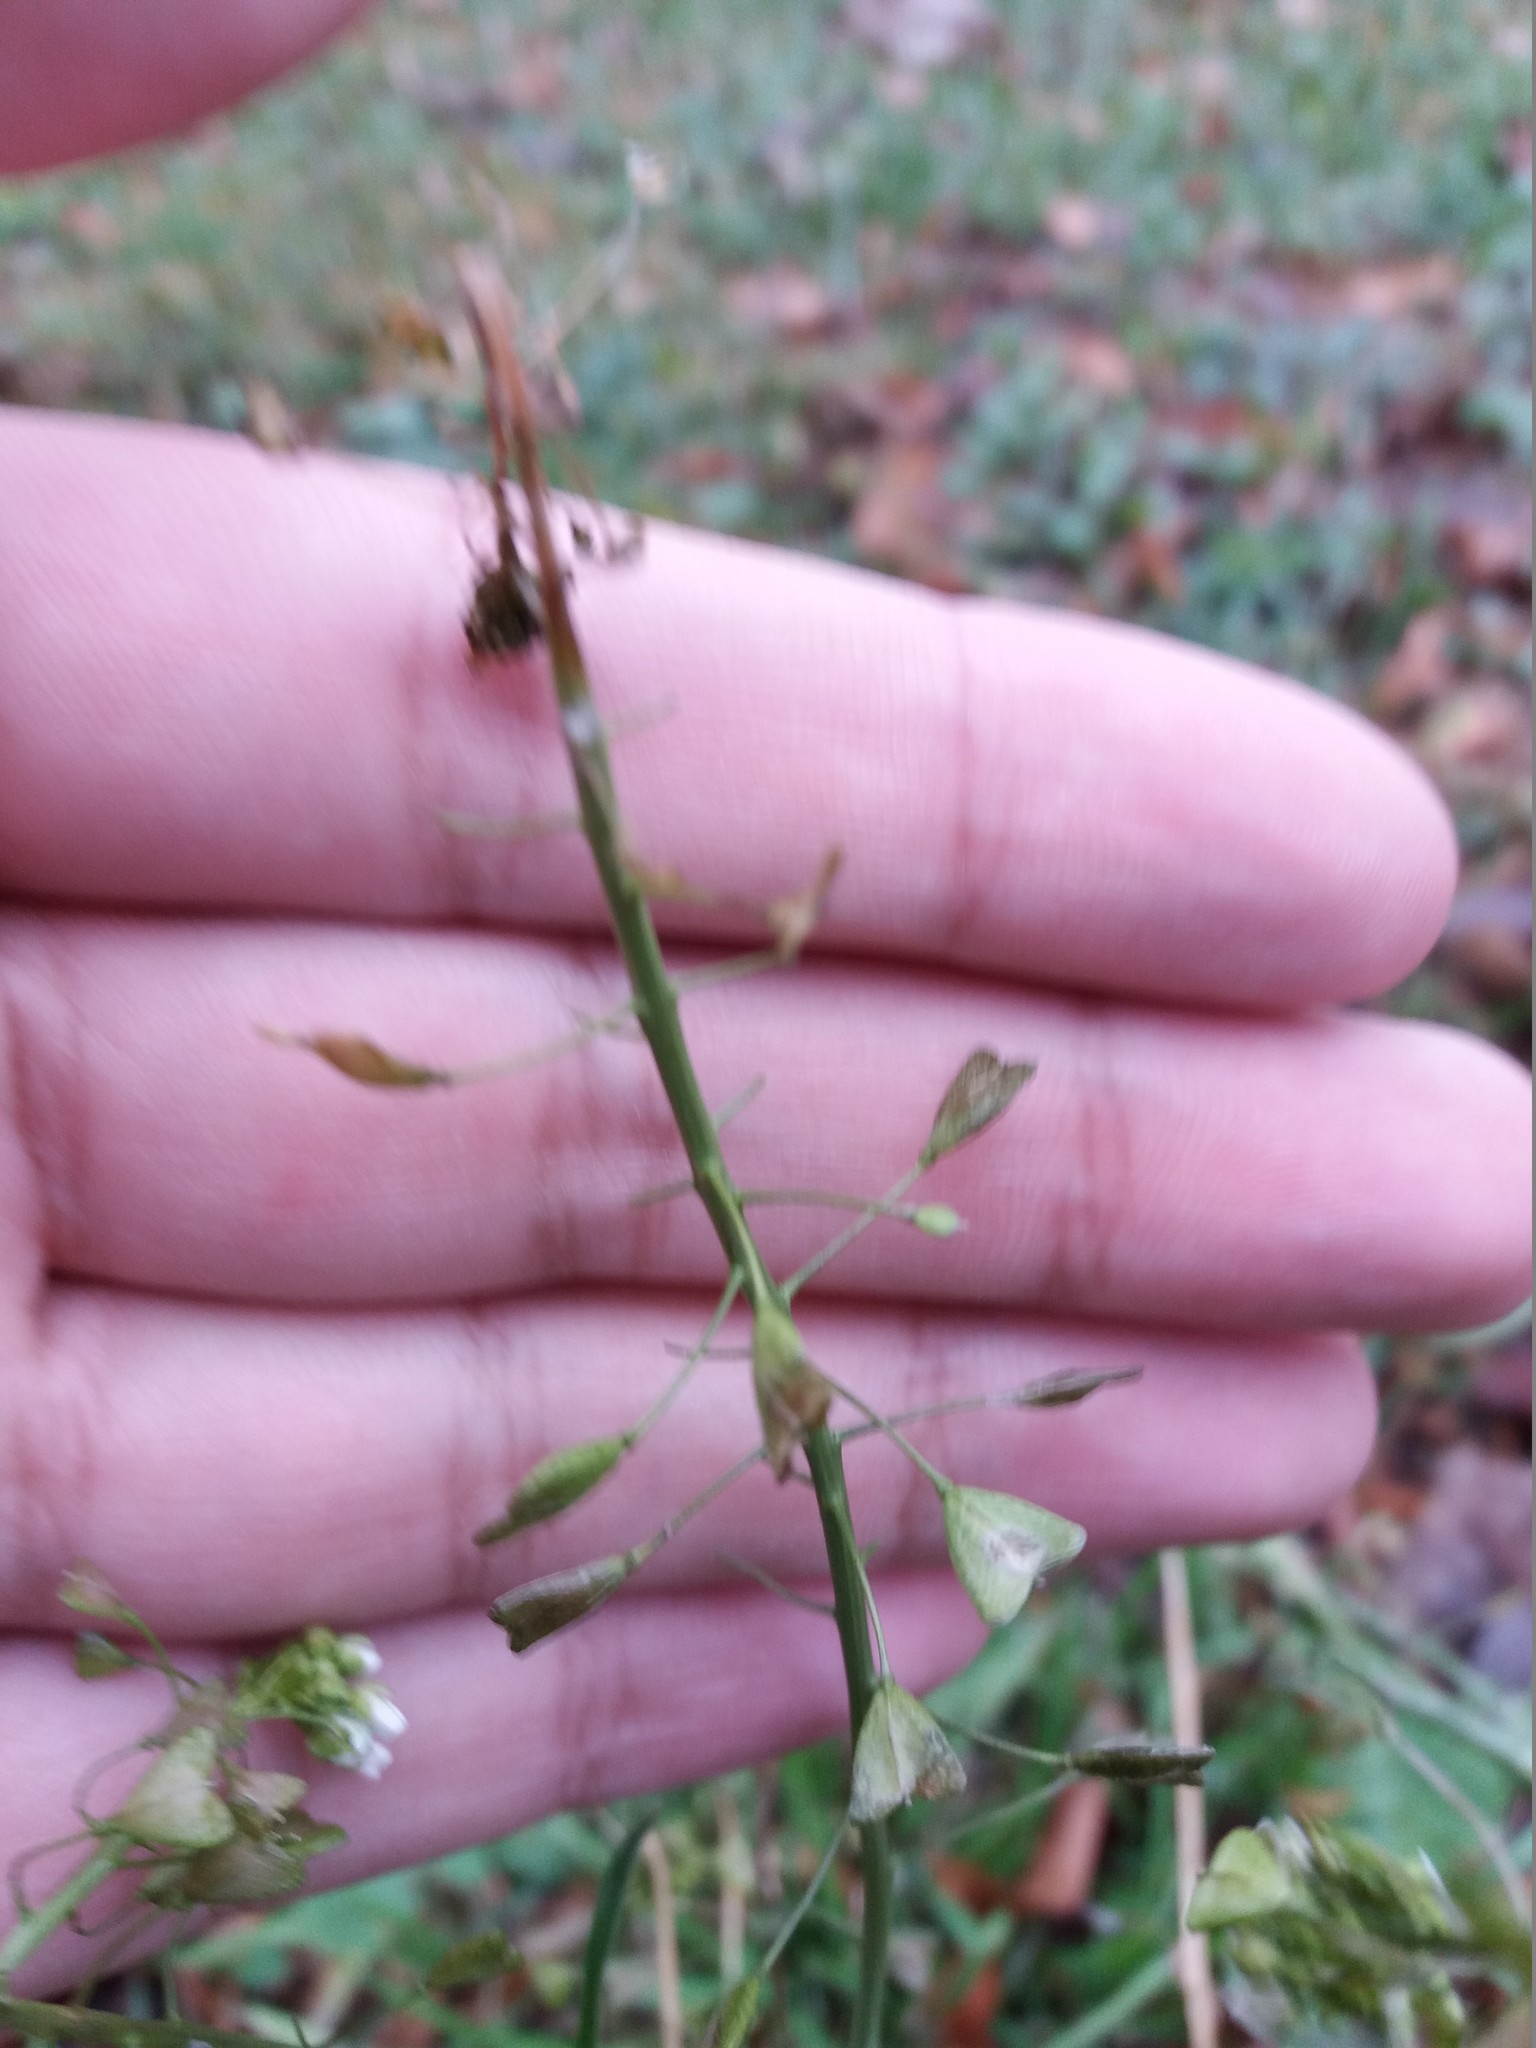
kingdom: Plantae
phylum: Tracheophyta
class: Magnoliopsida
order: Brassicales
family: Brassicaceae
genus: Capsella
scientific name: Capsella bursa-pastoris
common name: Shepherd's purse
